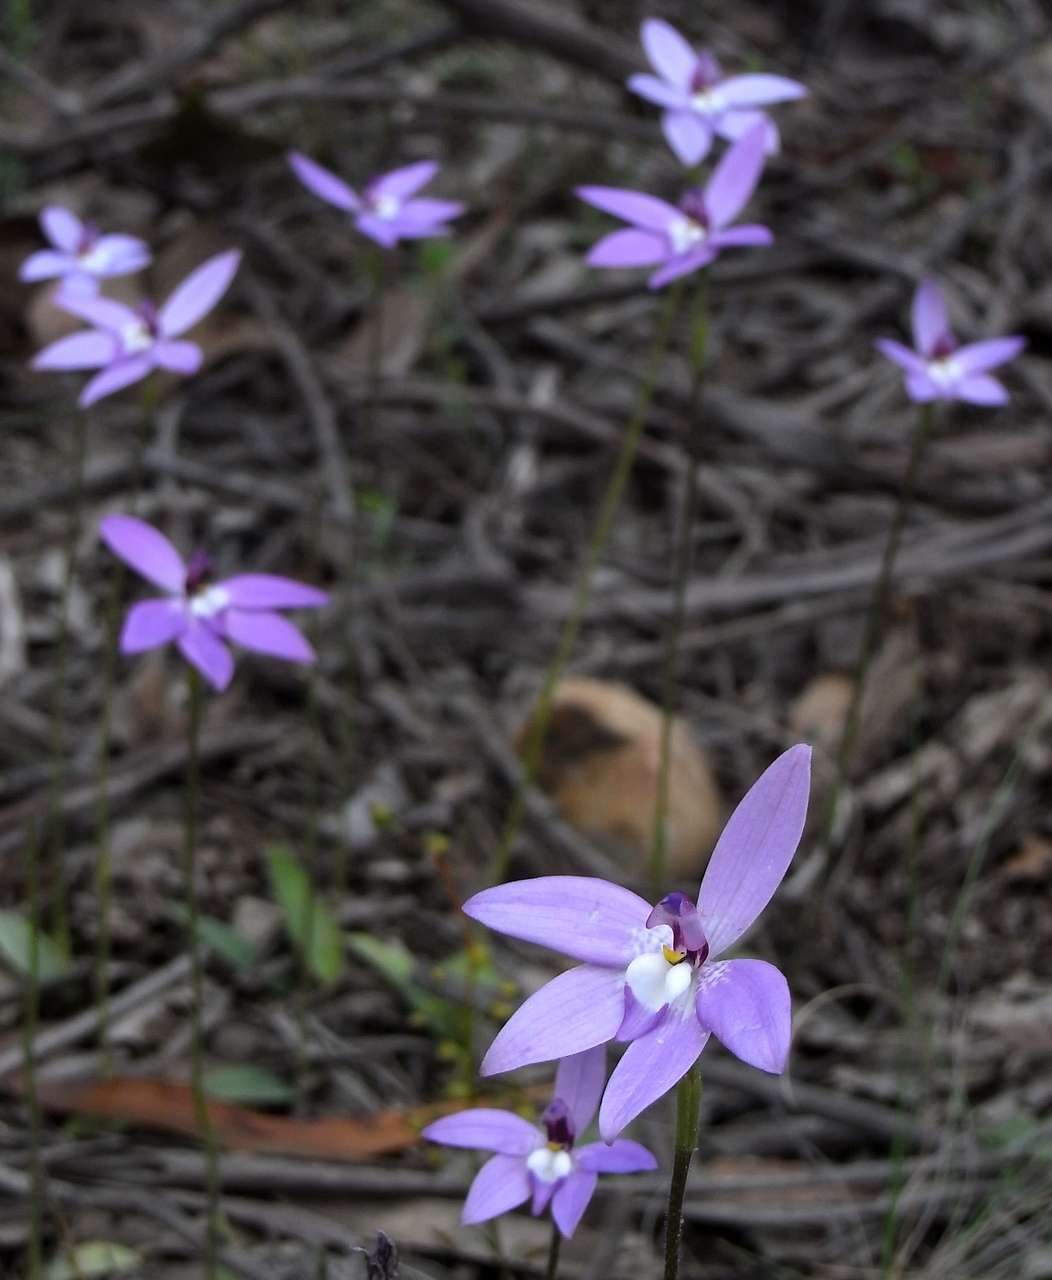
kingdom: Plantae
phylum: Tracheophyta
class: Liliopsida
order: Asparagales
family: Orchidaceae
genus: Caladenia
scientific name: Caladenia major
